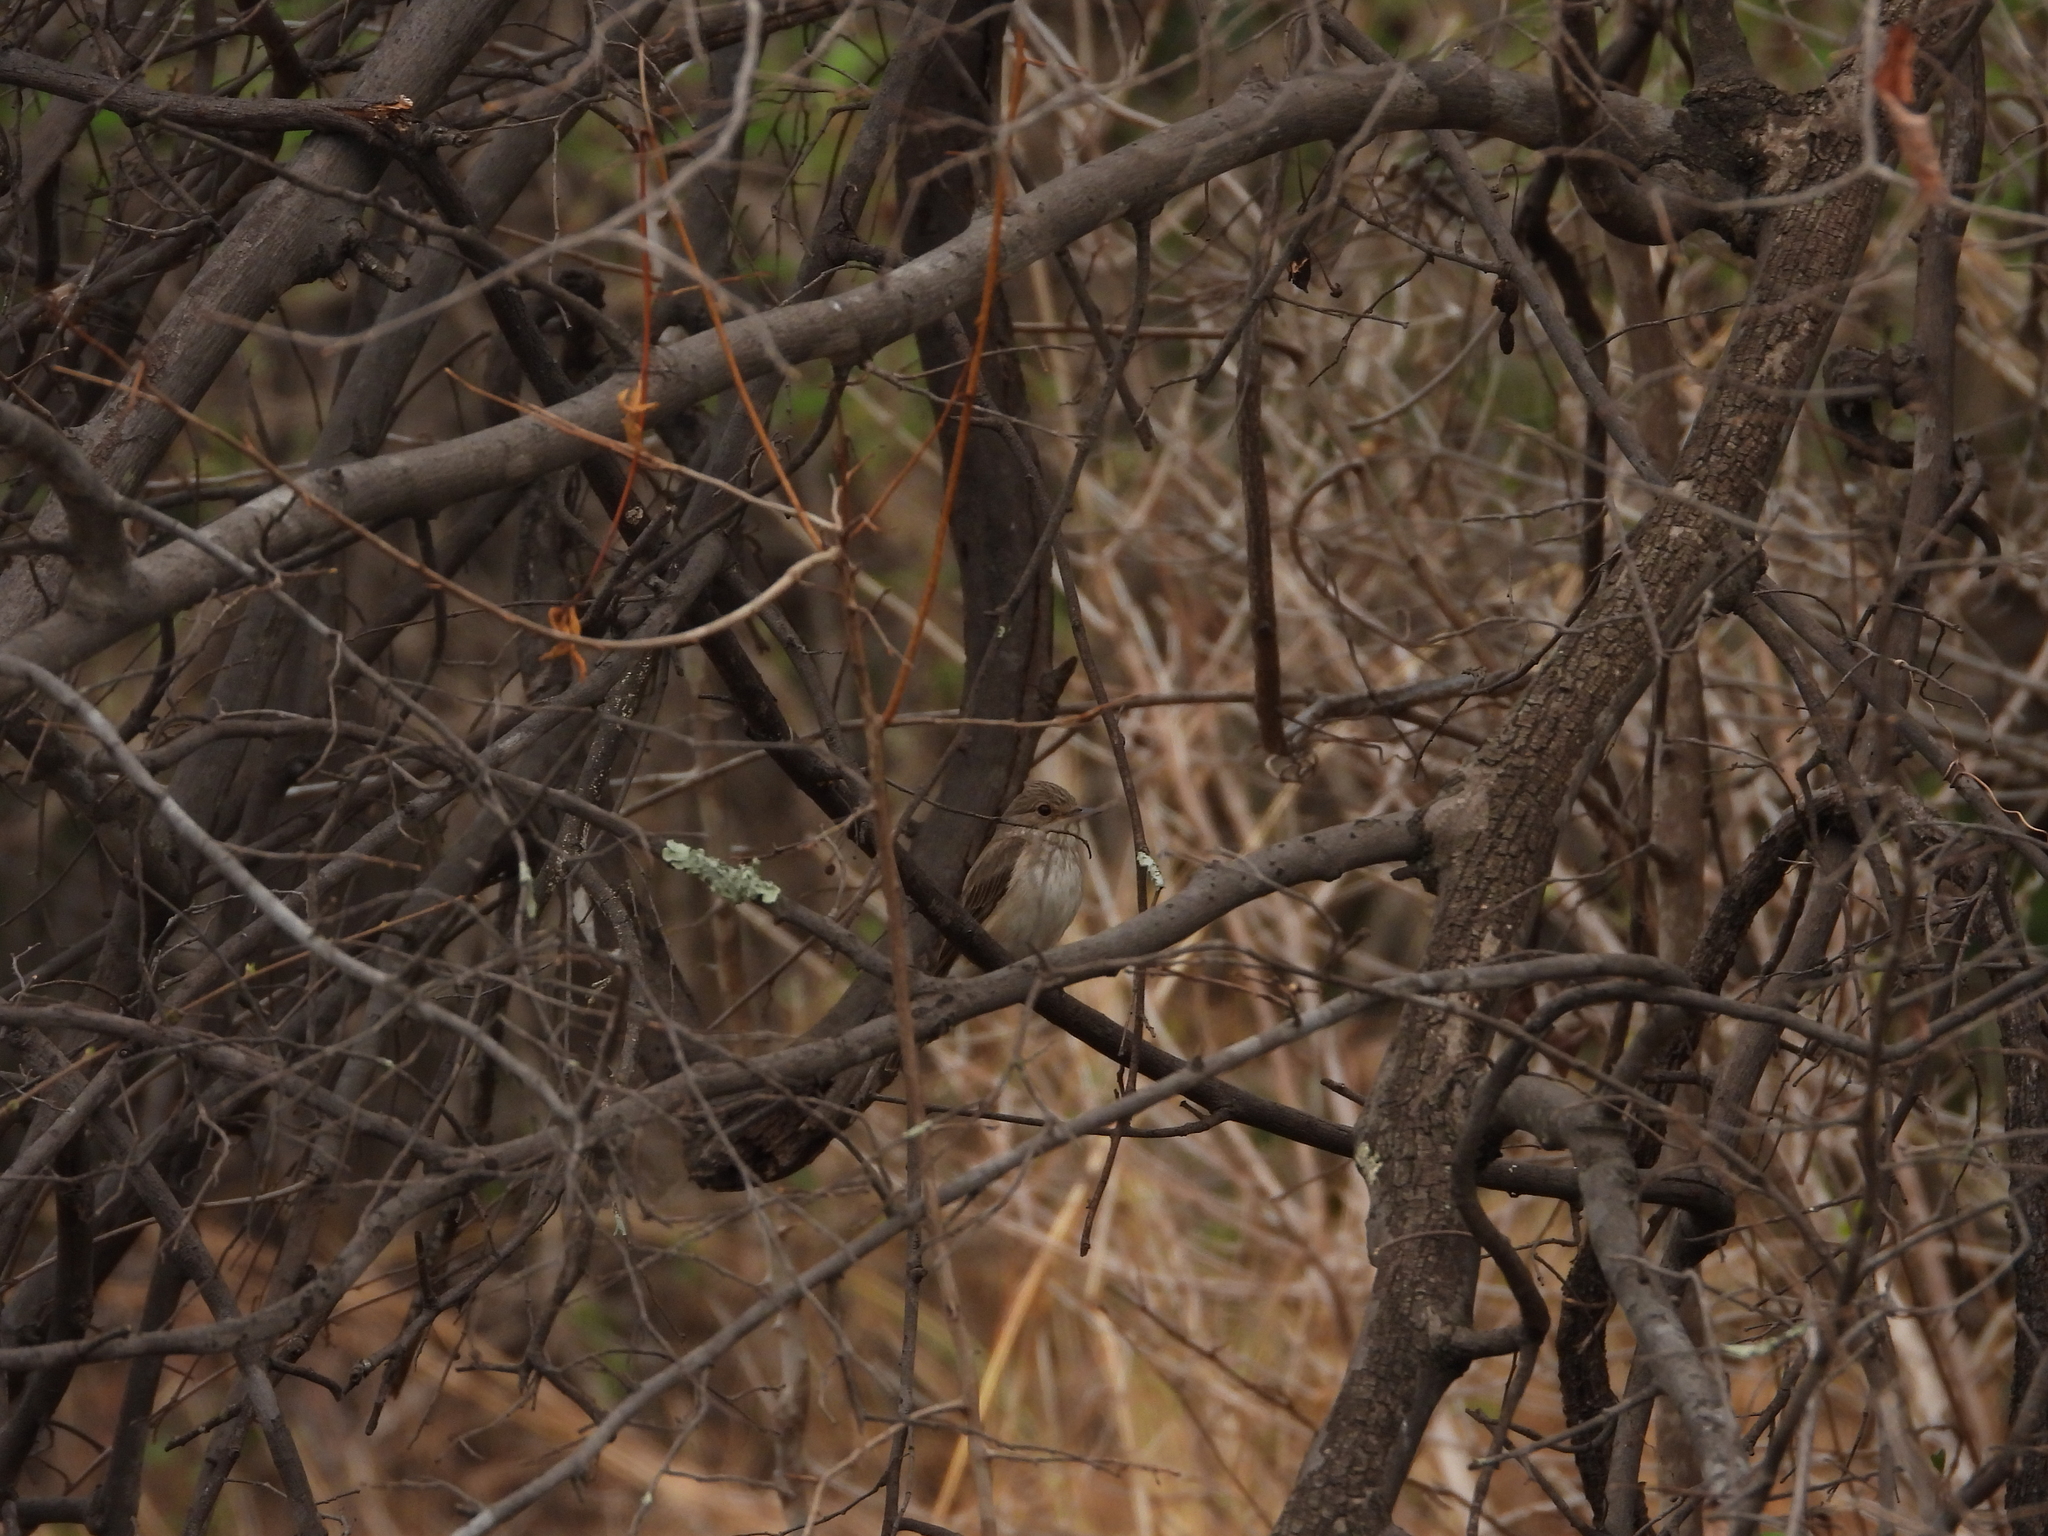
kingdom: Animalia
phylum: Chordata
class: Aves
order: Passeriformes
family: Muscicapidae
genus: Muscicapa
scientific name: Muscicapa striata
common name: Spotted flycatcher
